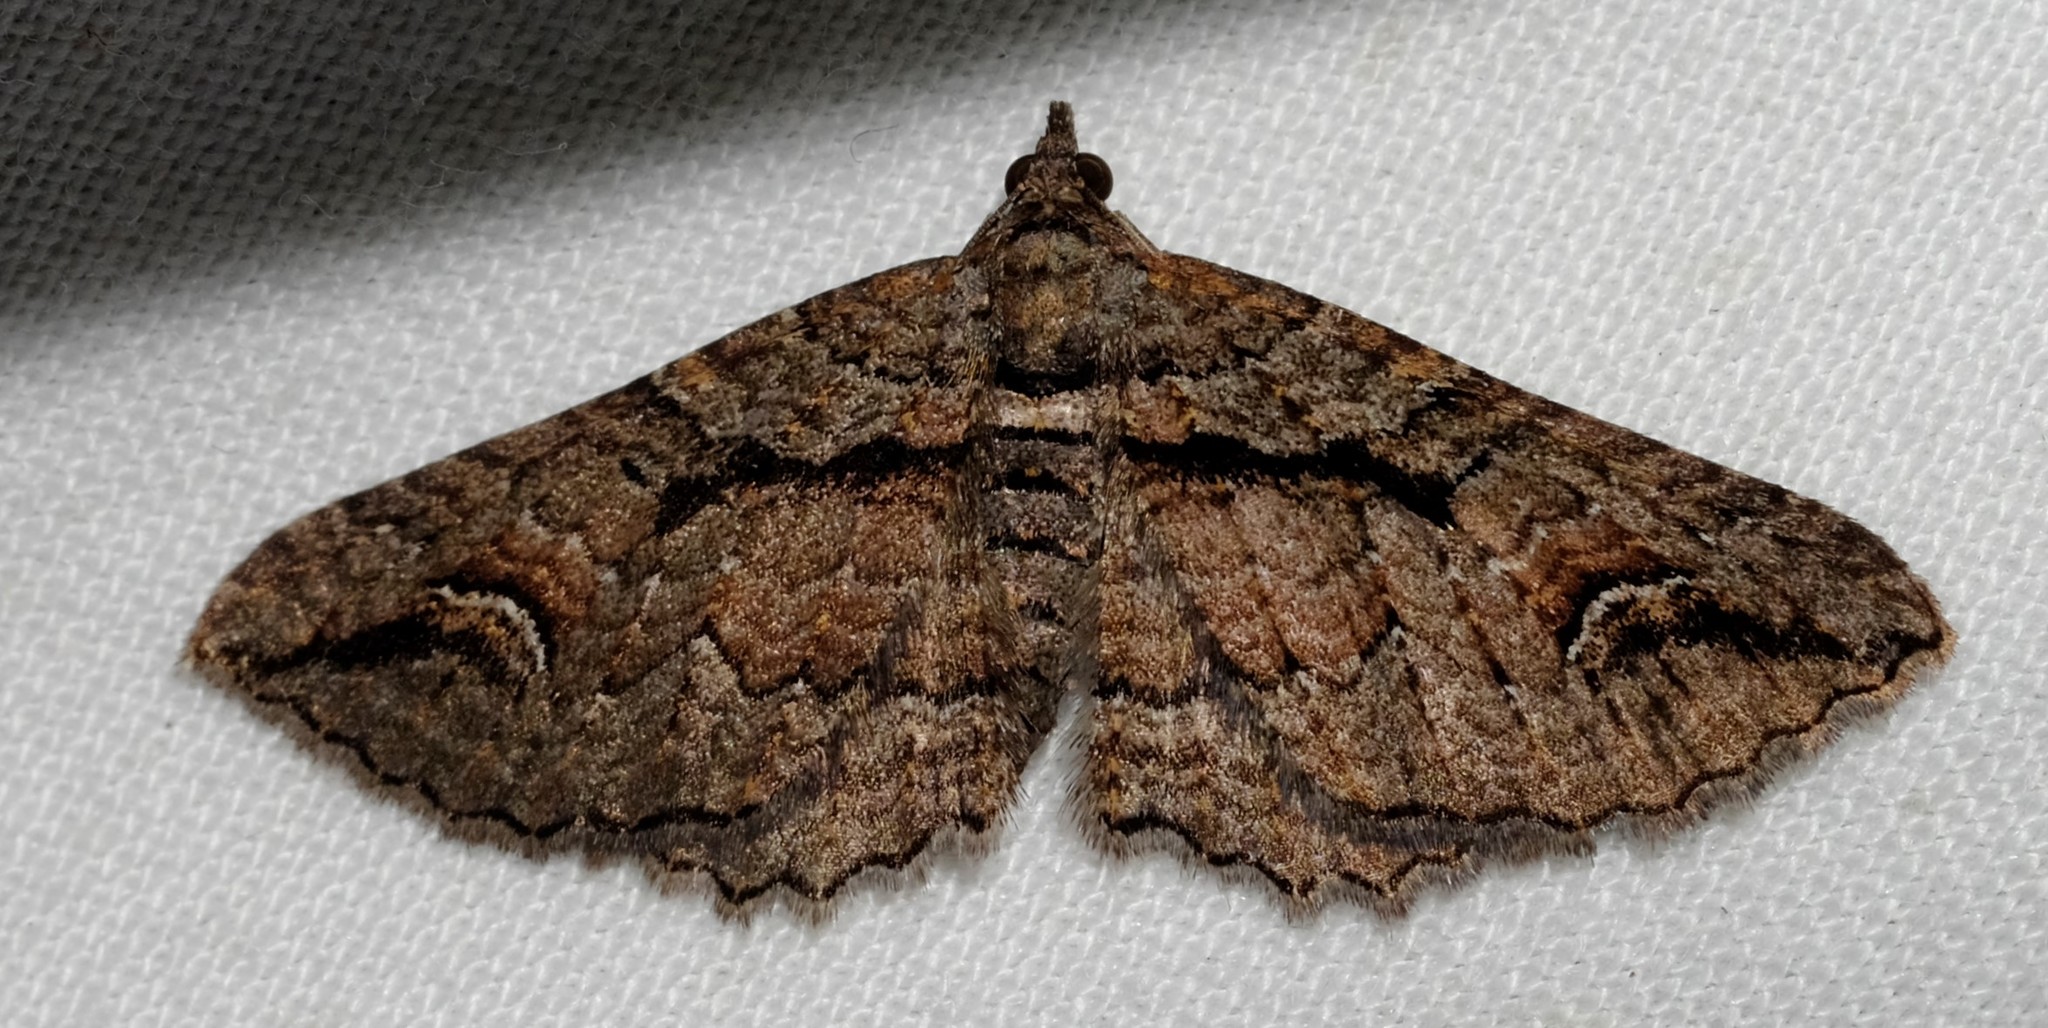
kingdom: Animalia
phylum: Arthropoda
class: Insecta
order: Lepidoptera
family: Geometridae
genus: Chrysolarentia
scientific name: Chrysolarentia plagiocausta
